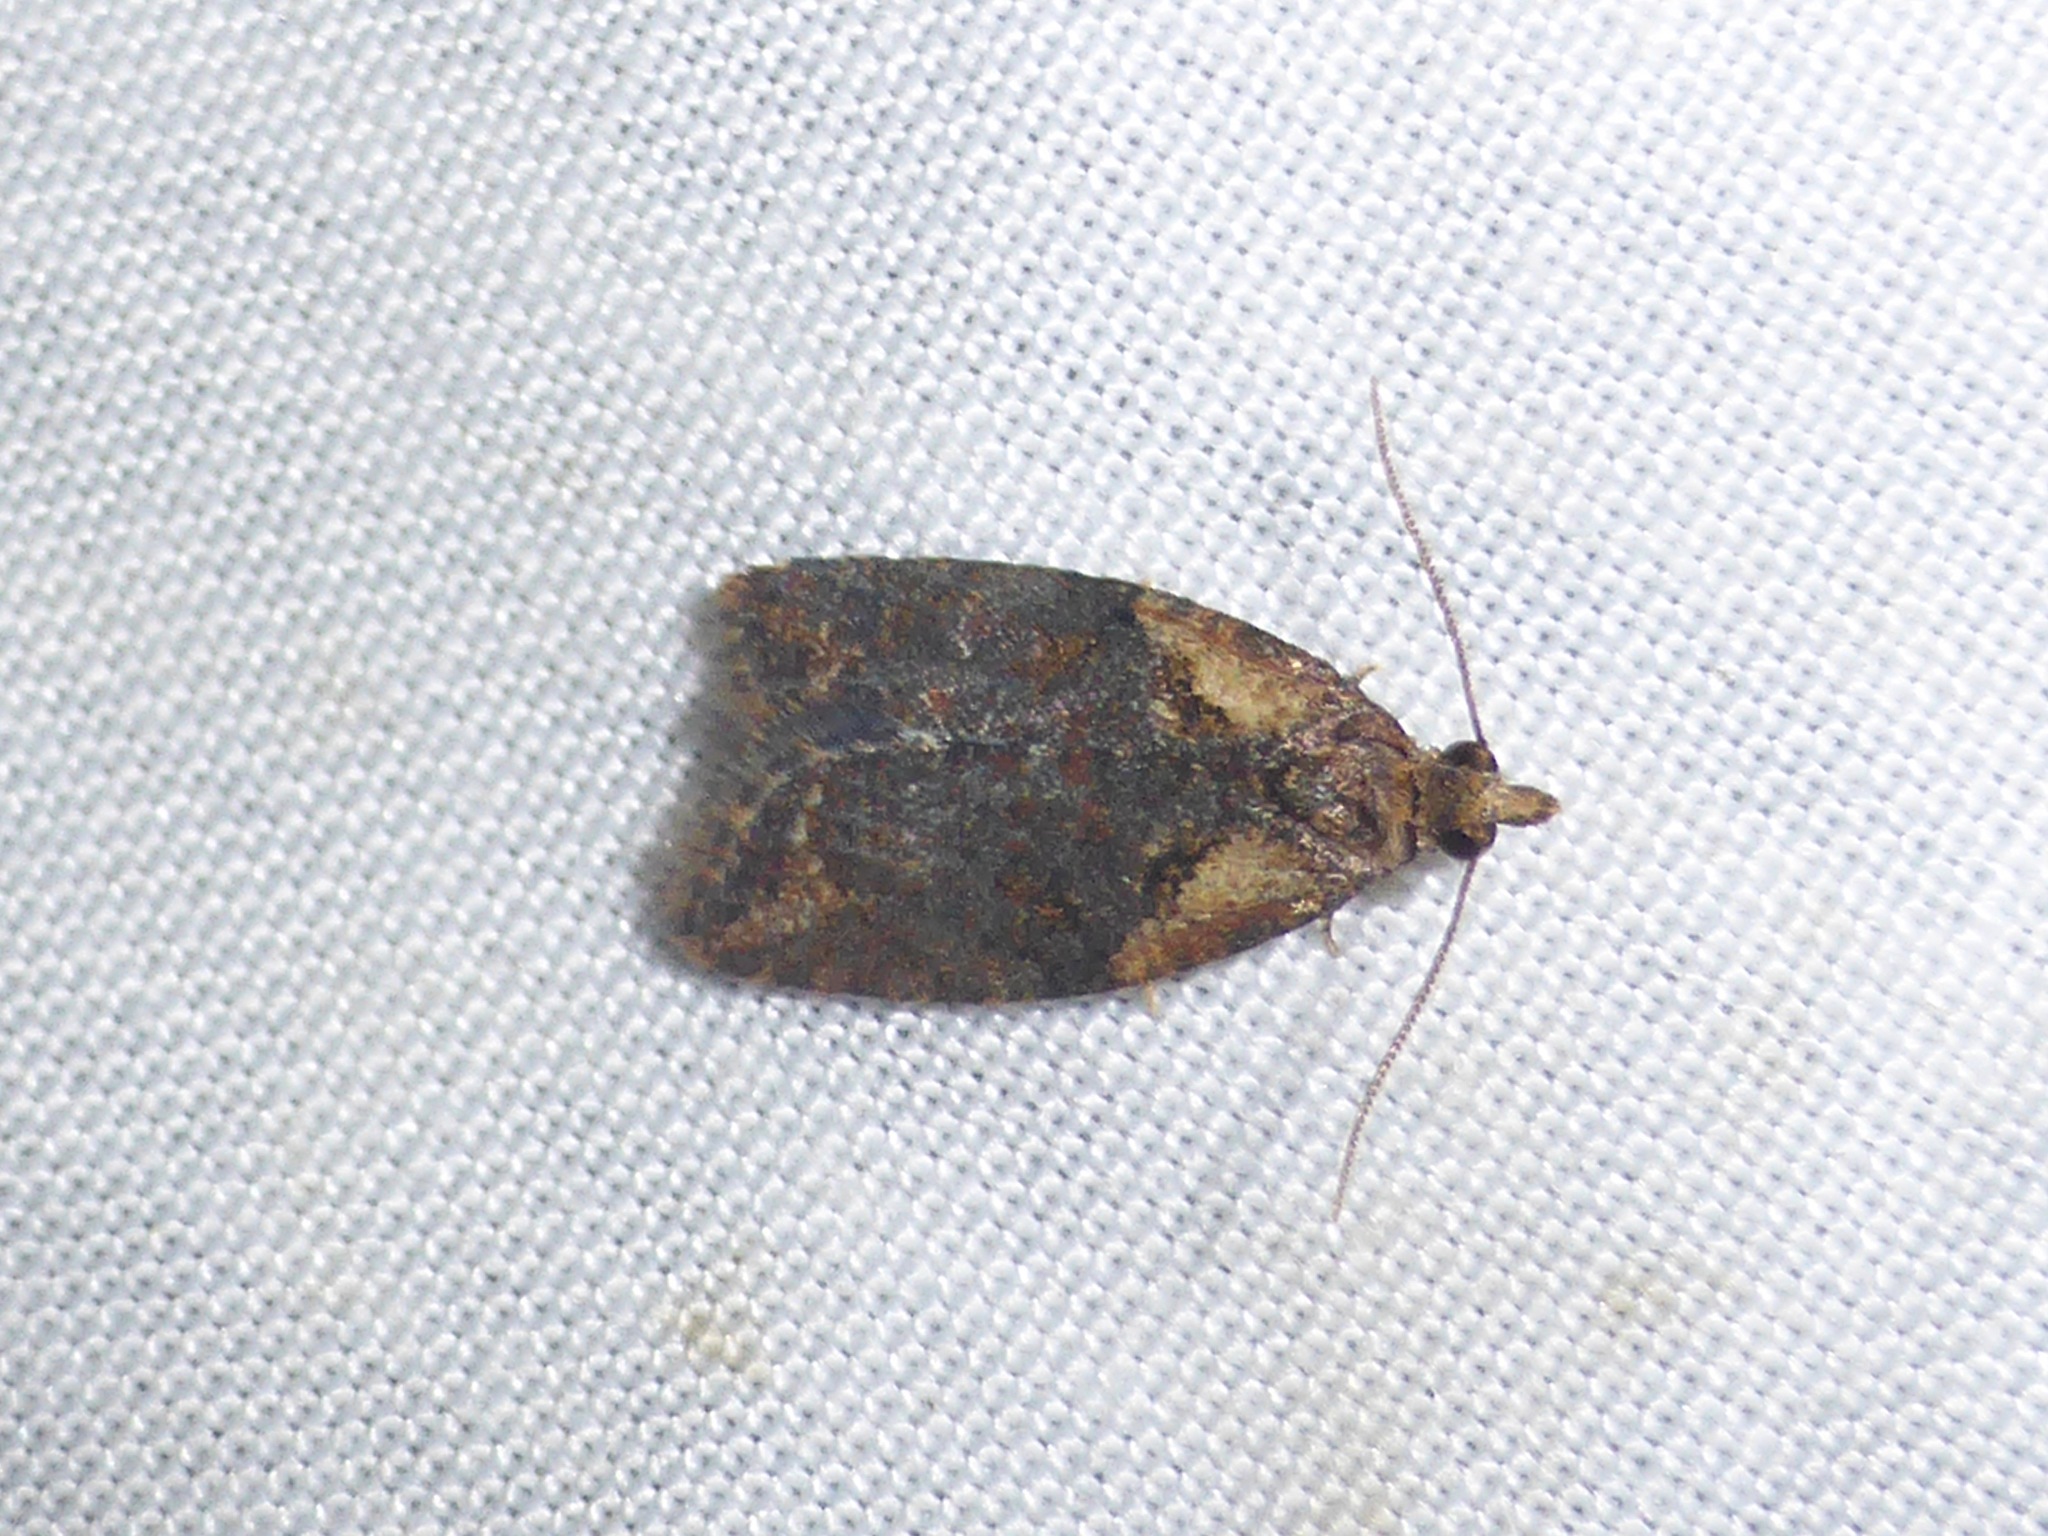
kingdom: Animalia
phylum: Arthropoda
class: Insecta
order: Lepidoptera
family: Tortricidae
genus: Capua
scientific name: Capua intractana
